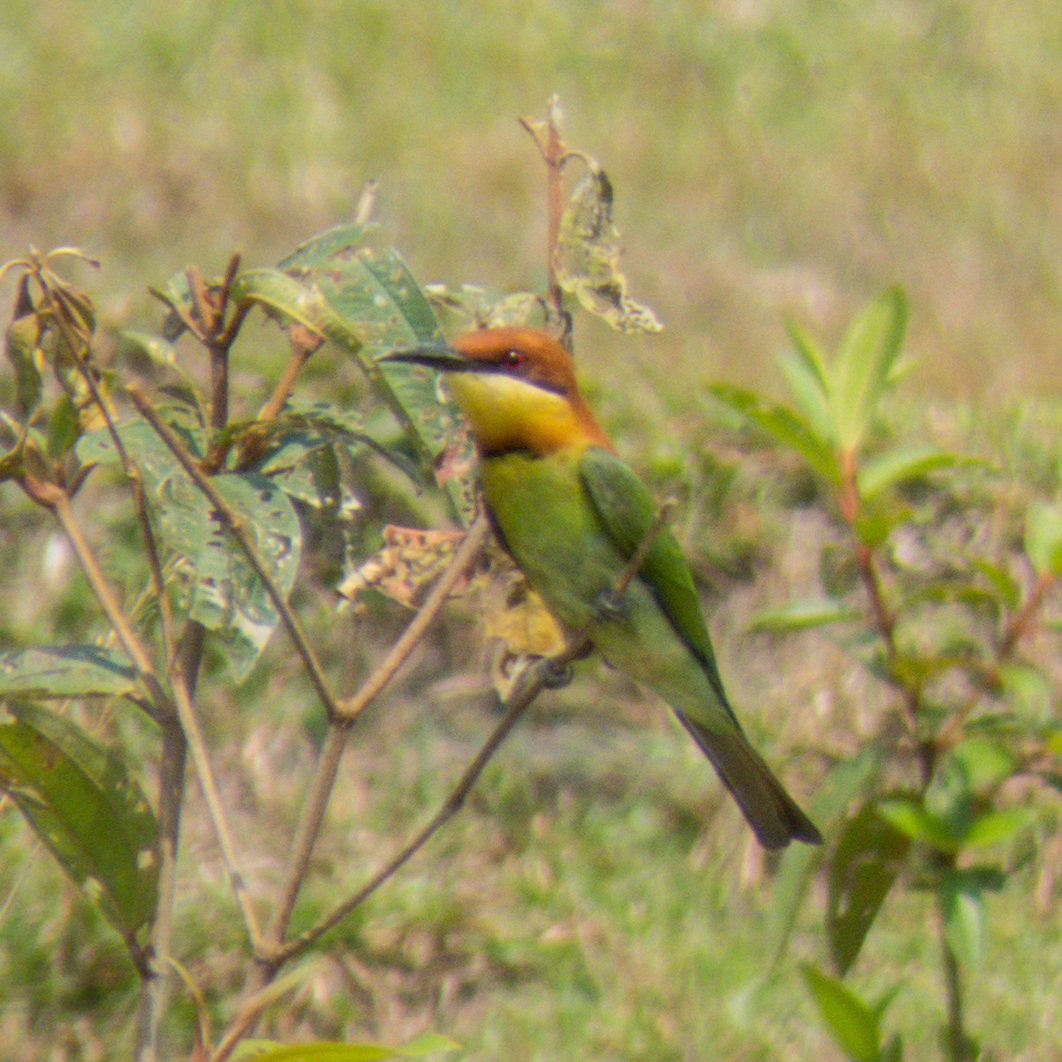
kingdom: Animalia
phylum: Chordata
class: Aves
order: Coraciiformes
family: Meropidae
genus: Merops
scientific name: Merops leschenaulti
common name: Chestnut-headed bee-eater
